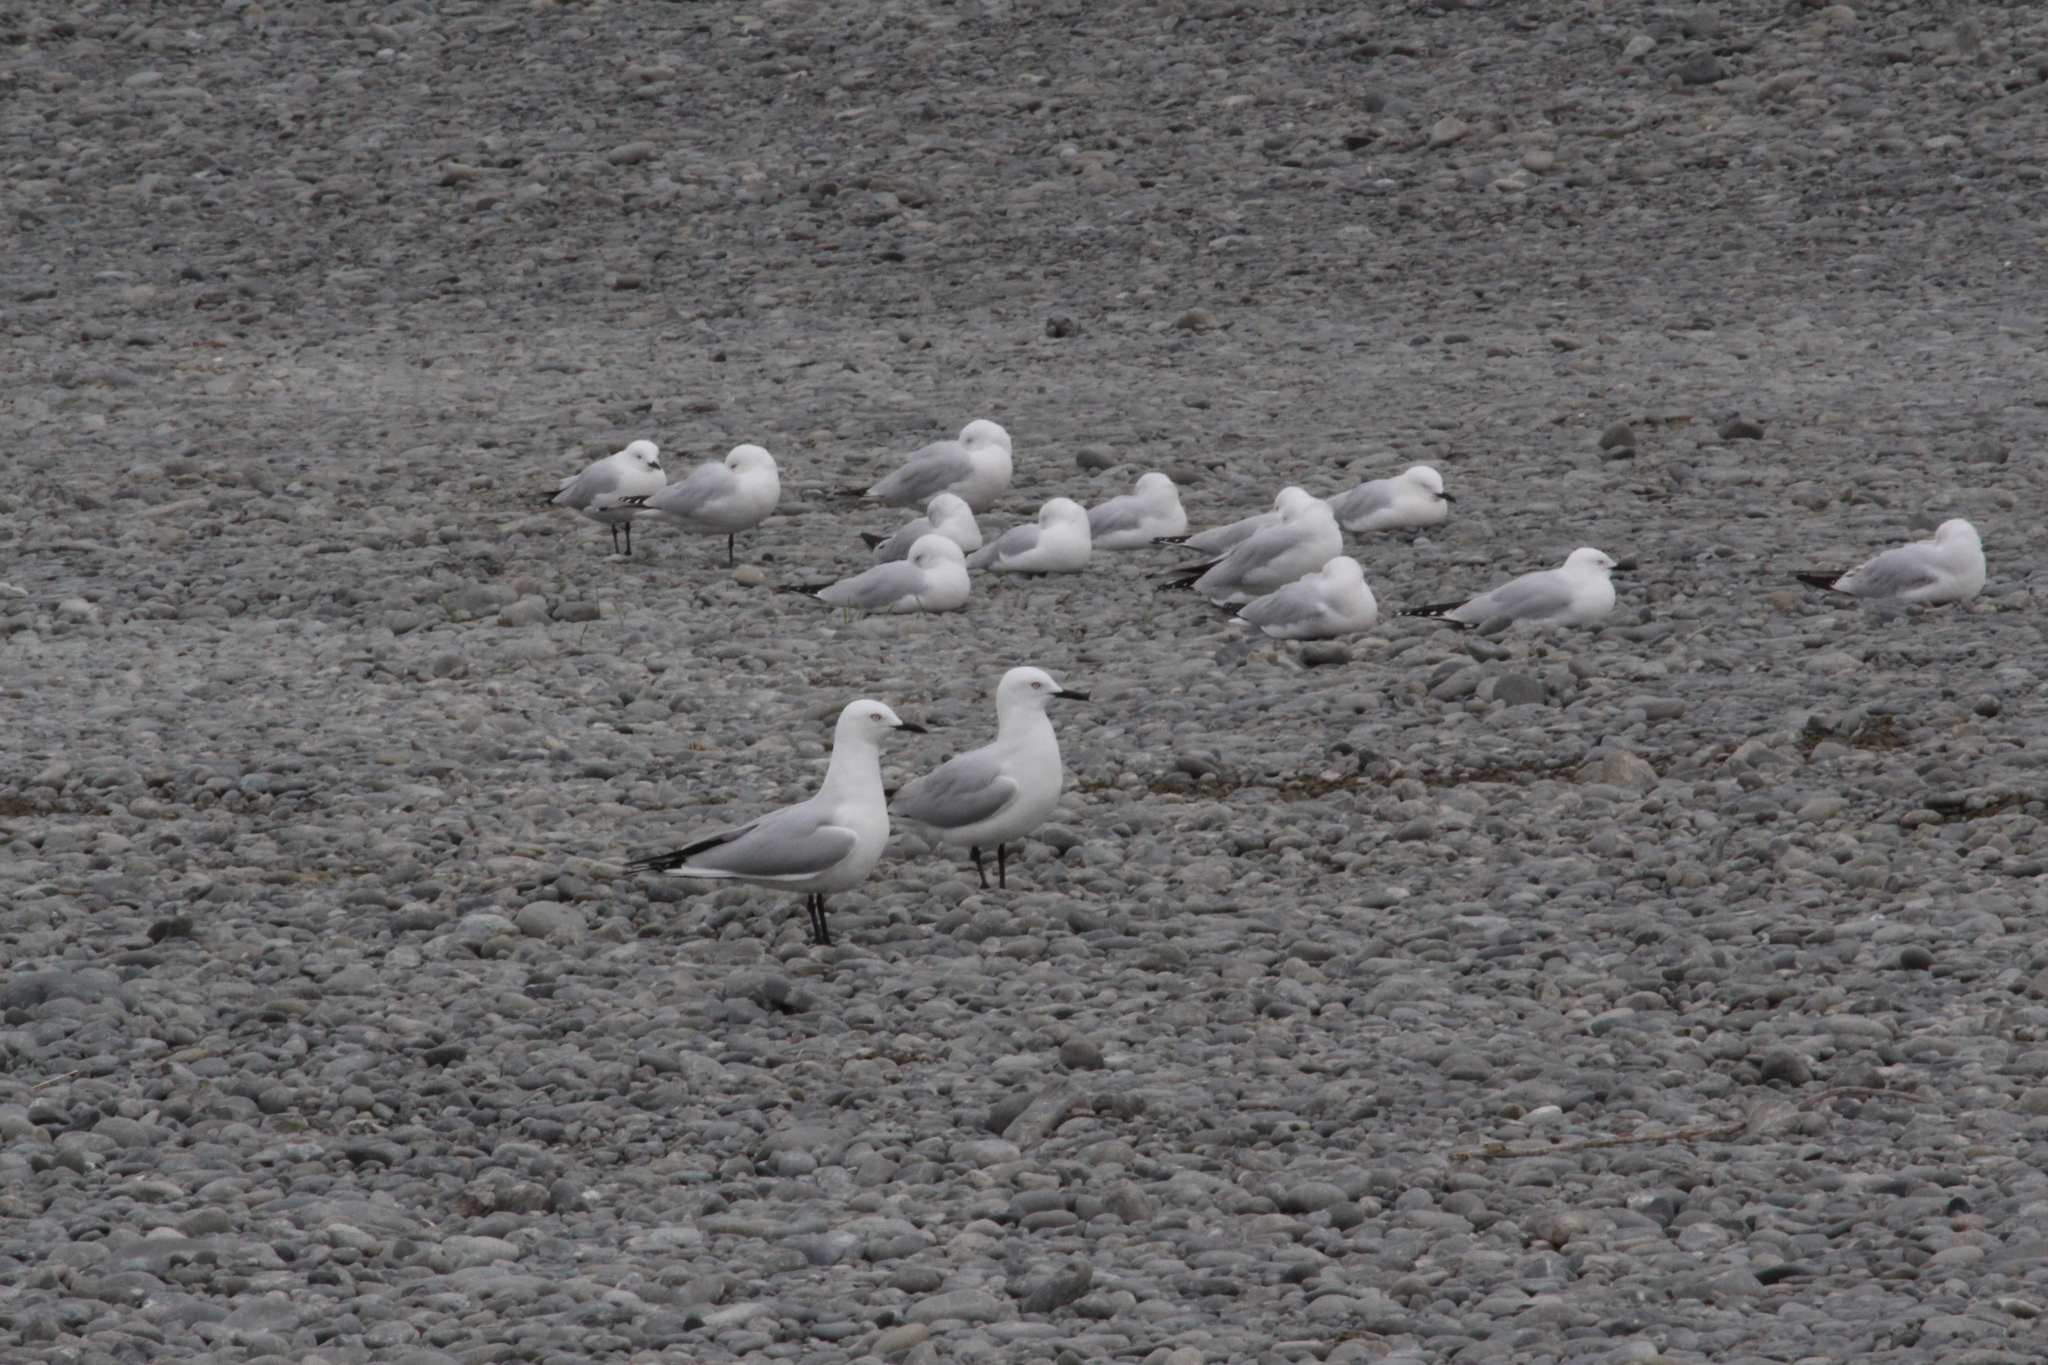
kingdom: Animalia
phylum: Chordata
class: Aves
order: Charadriiformes
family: Laridae
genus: Chroicocephalus
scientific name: Chroicocephalus bulleri
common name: Black-billed gull
